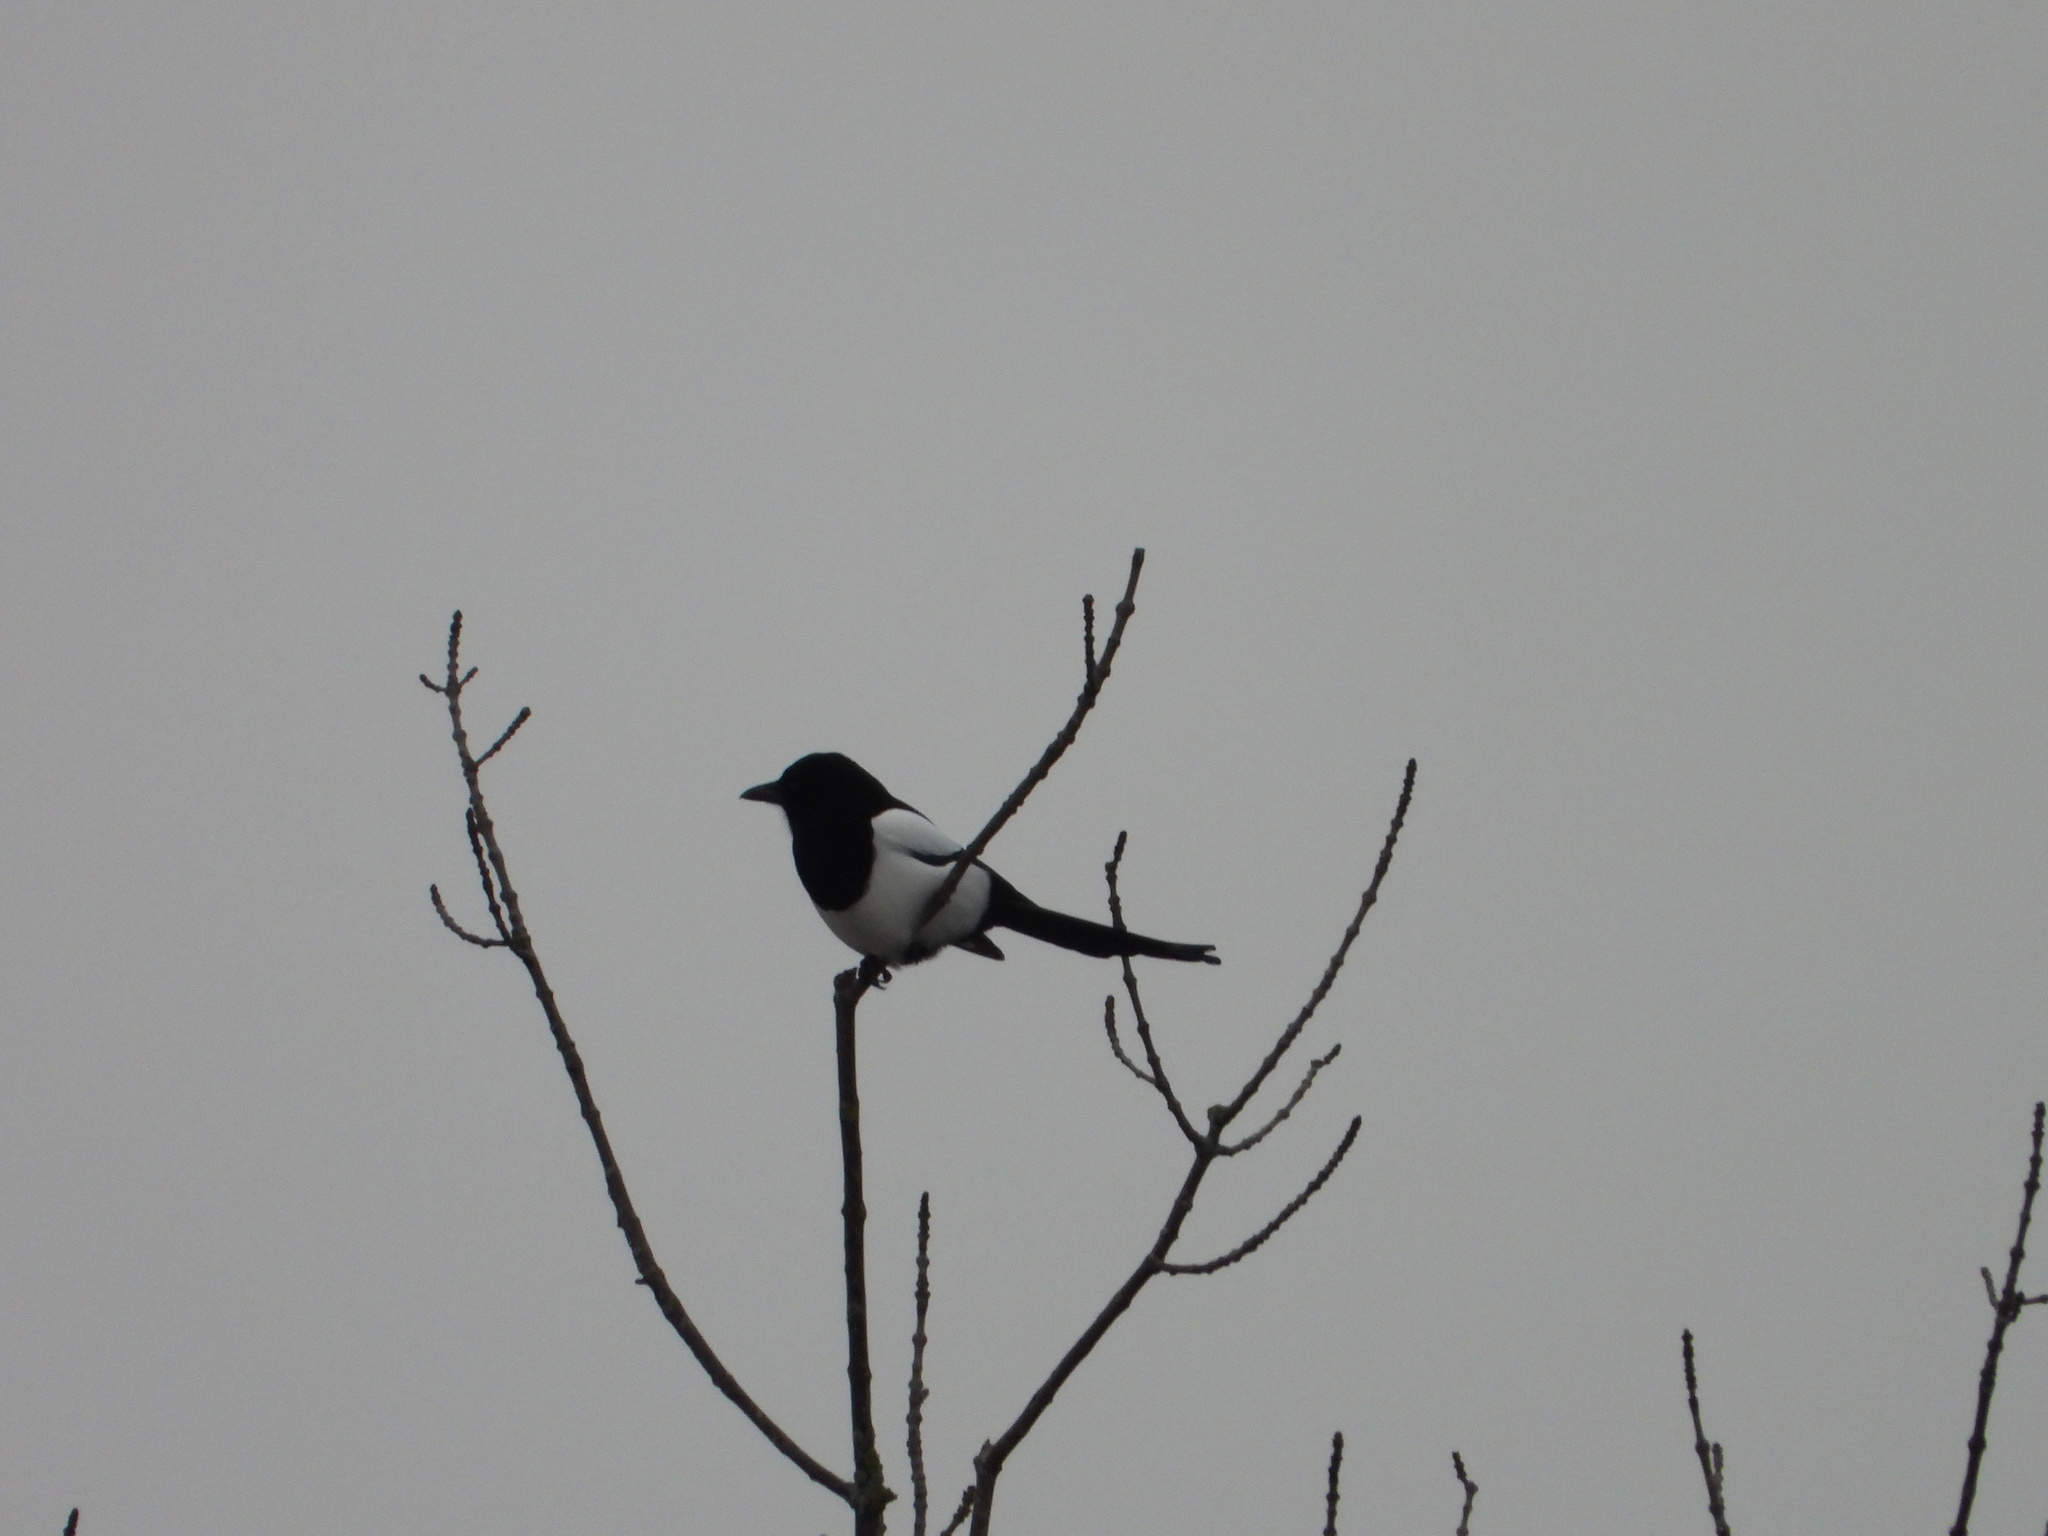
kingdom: Animalia
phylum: Chordata
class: Aves
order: Passeriformes
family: Corvidae
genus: Pica
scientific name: Pica pica
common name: Eurasian magpie
